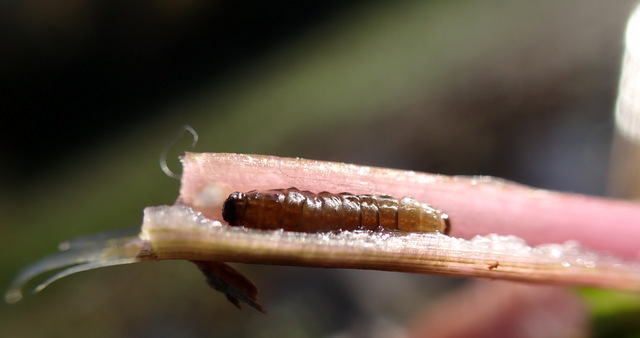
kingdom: Animalia
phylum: Arthropoda
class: Insecta
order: Coleoptera
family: Chrysomelidae
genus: Agasicles
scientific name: Agasicles hygrophila
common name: Alligatorweed flea beetle
